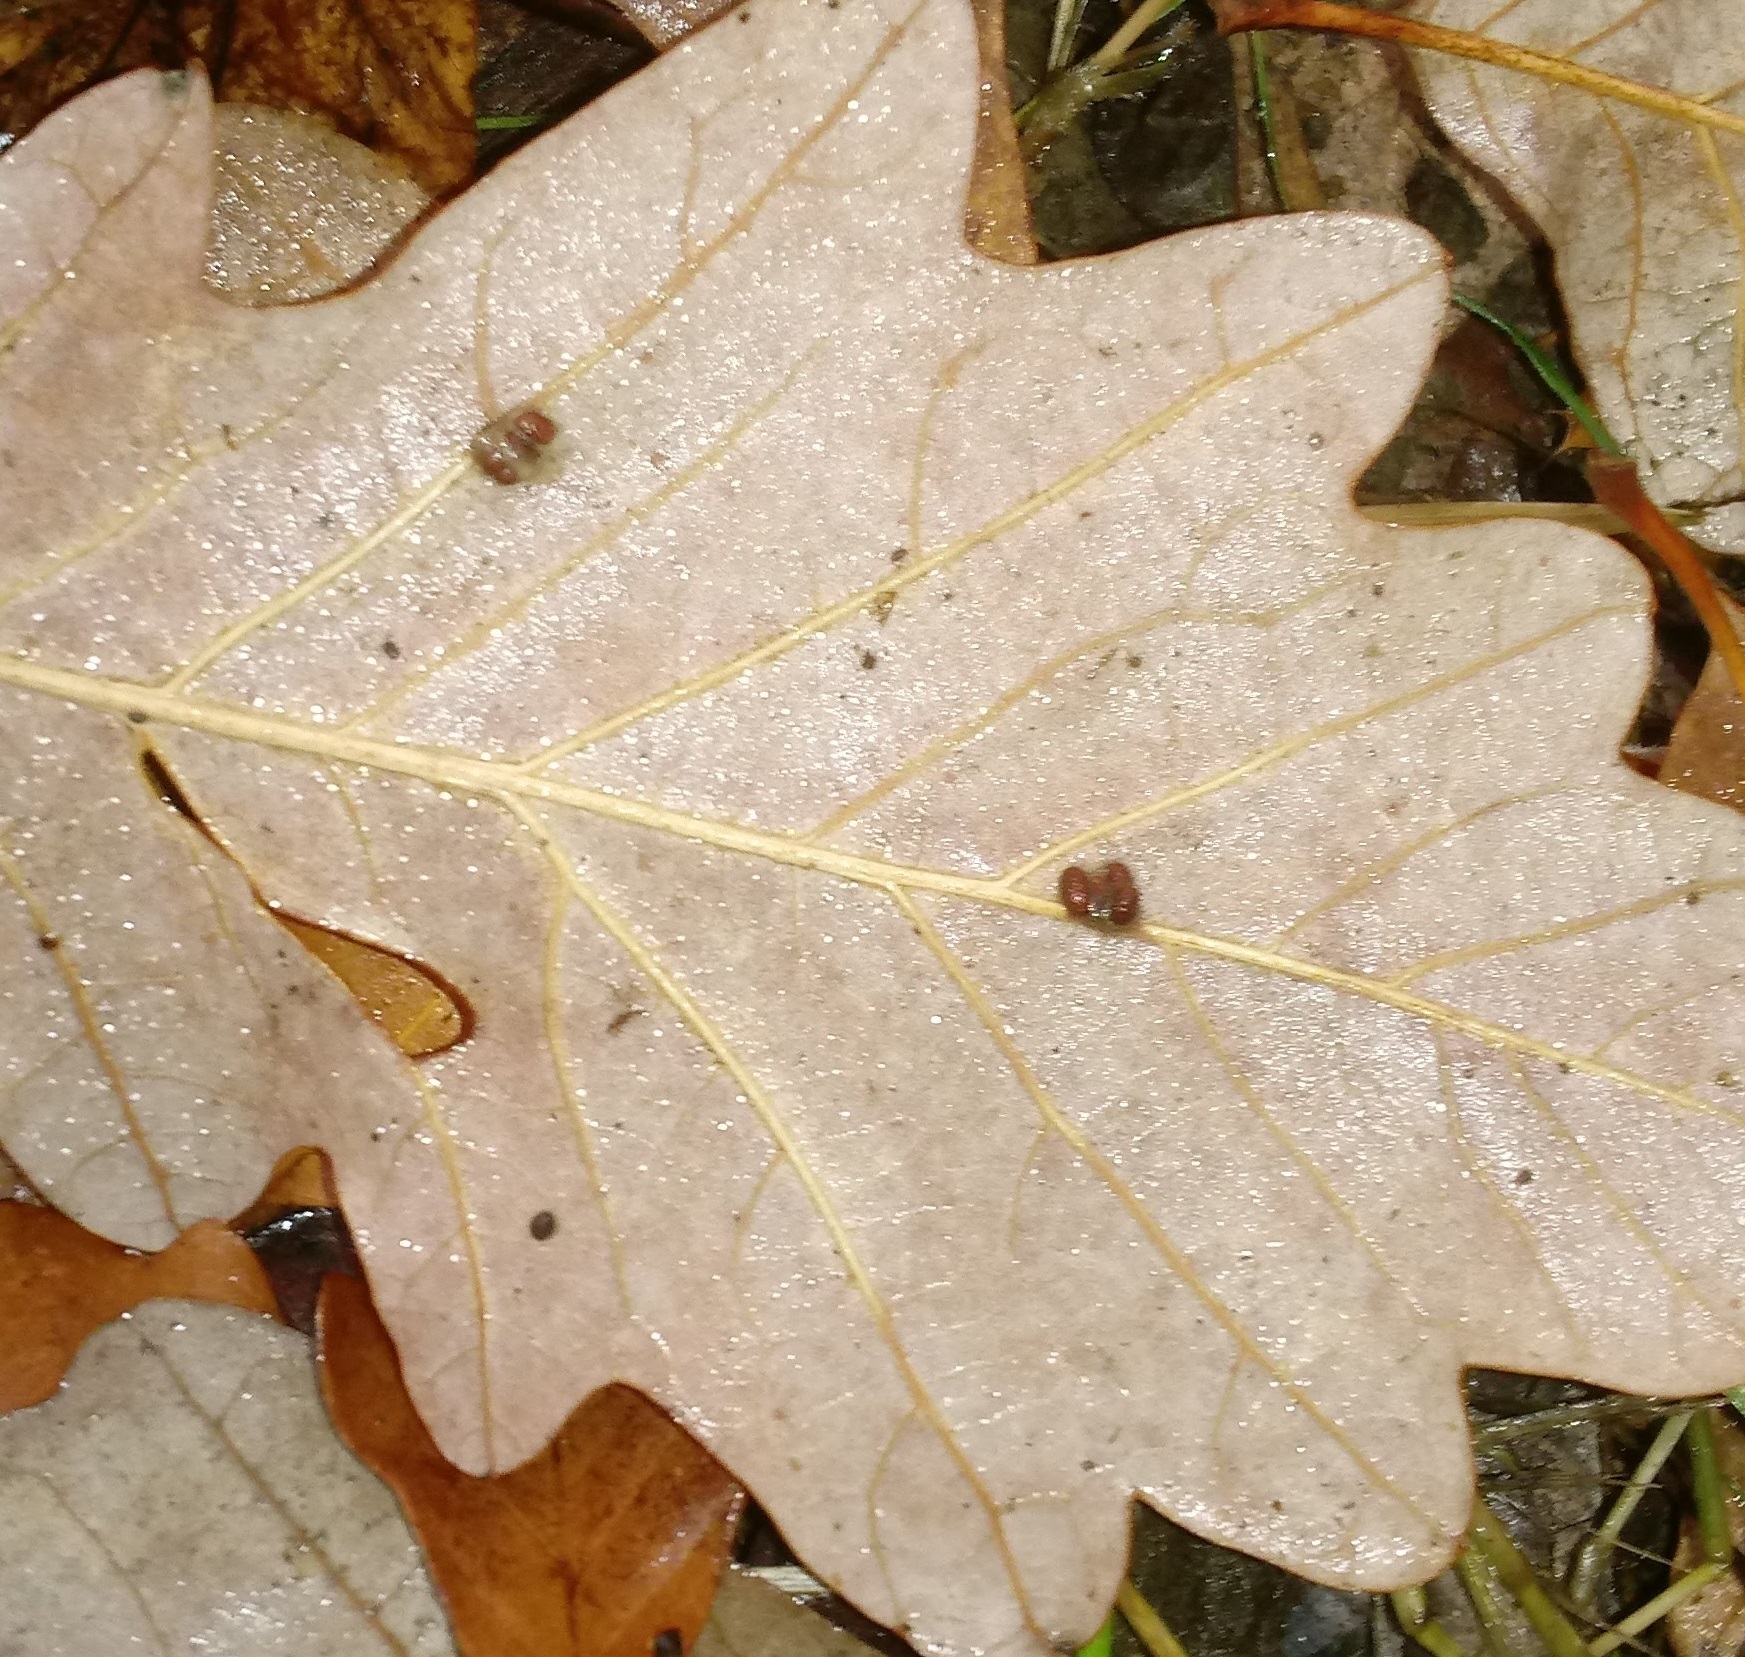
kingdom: Animalia
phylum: Arthropoda
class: Insecta
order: Hymenoptera
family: Cynipidae
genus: Andricus
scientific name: Andricus Druon ignotum
